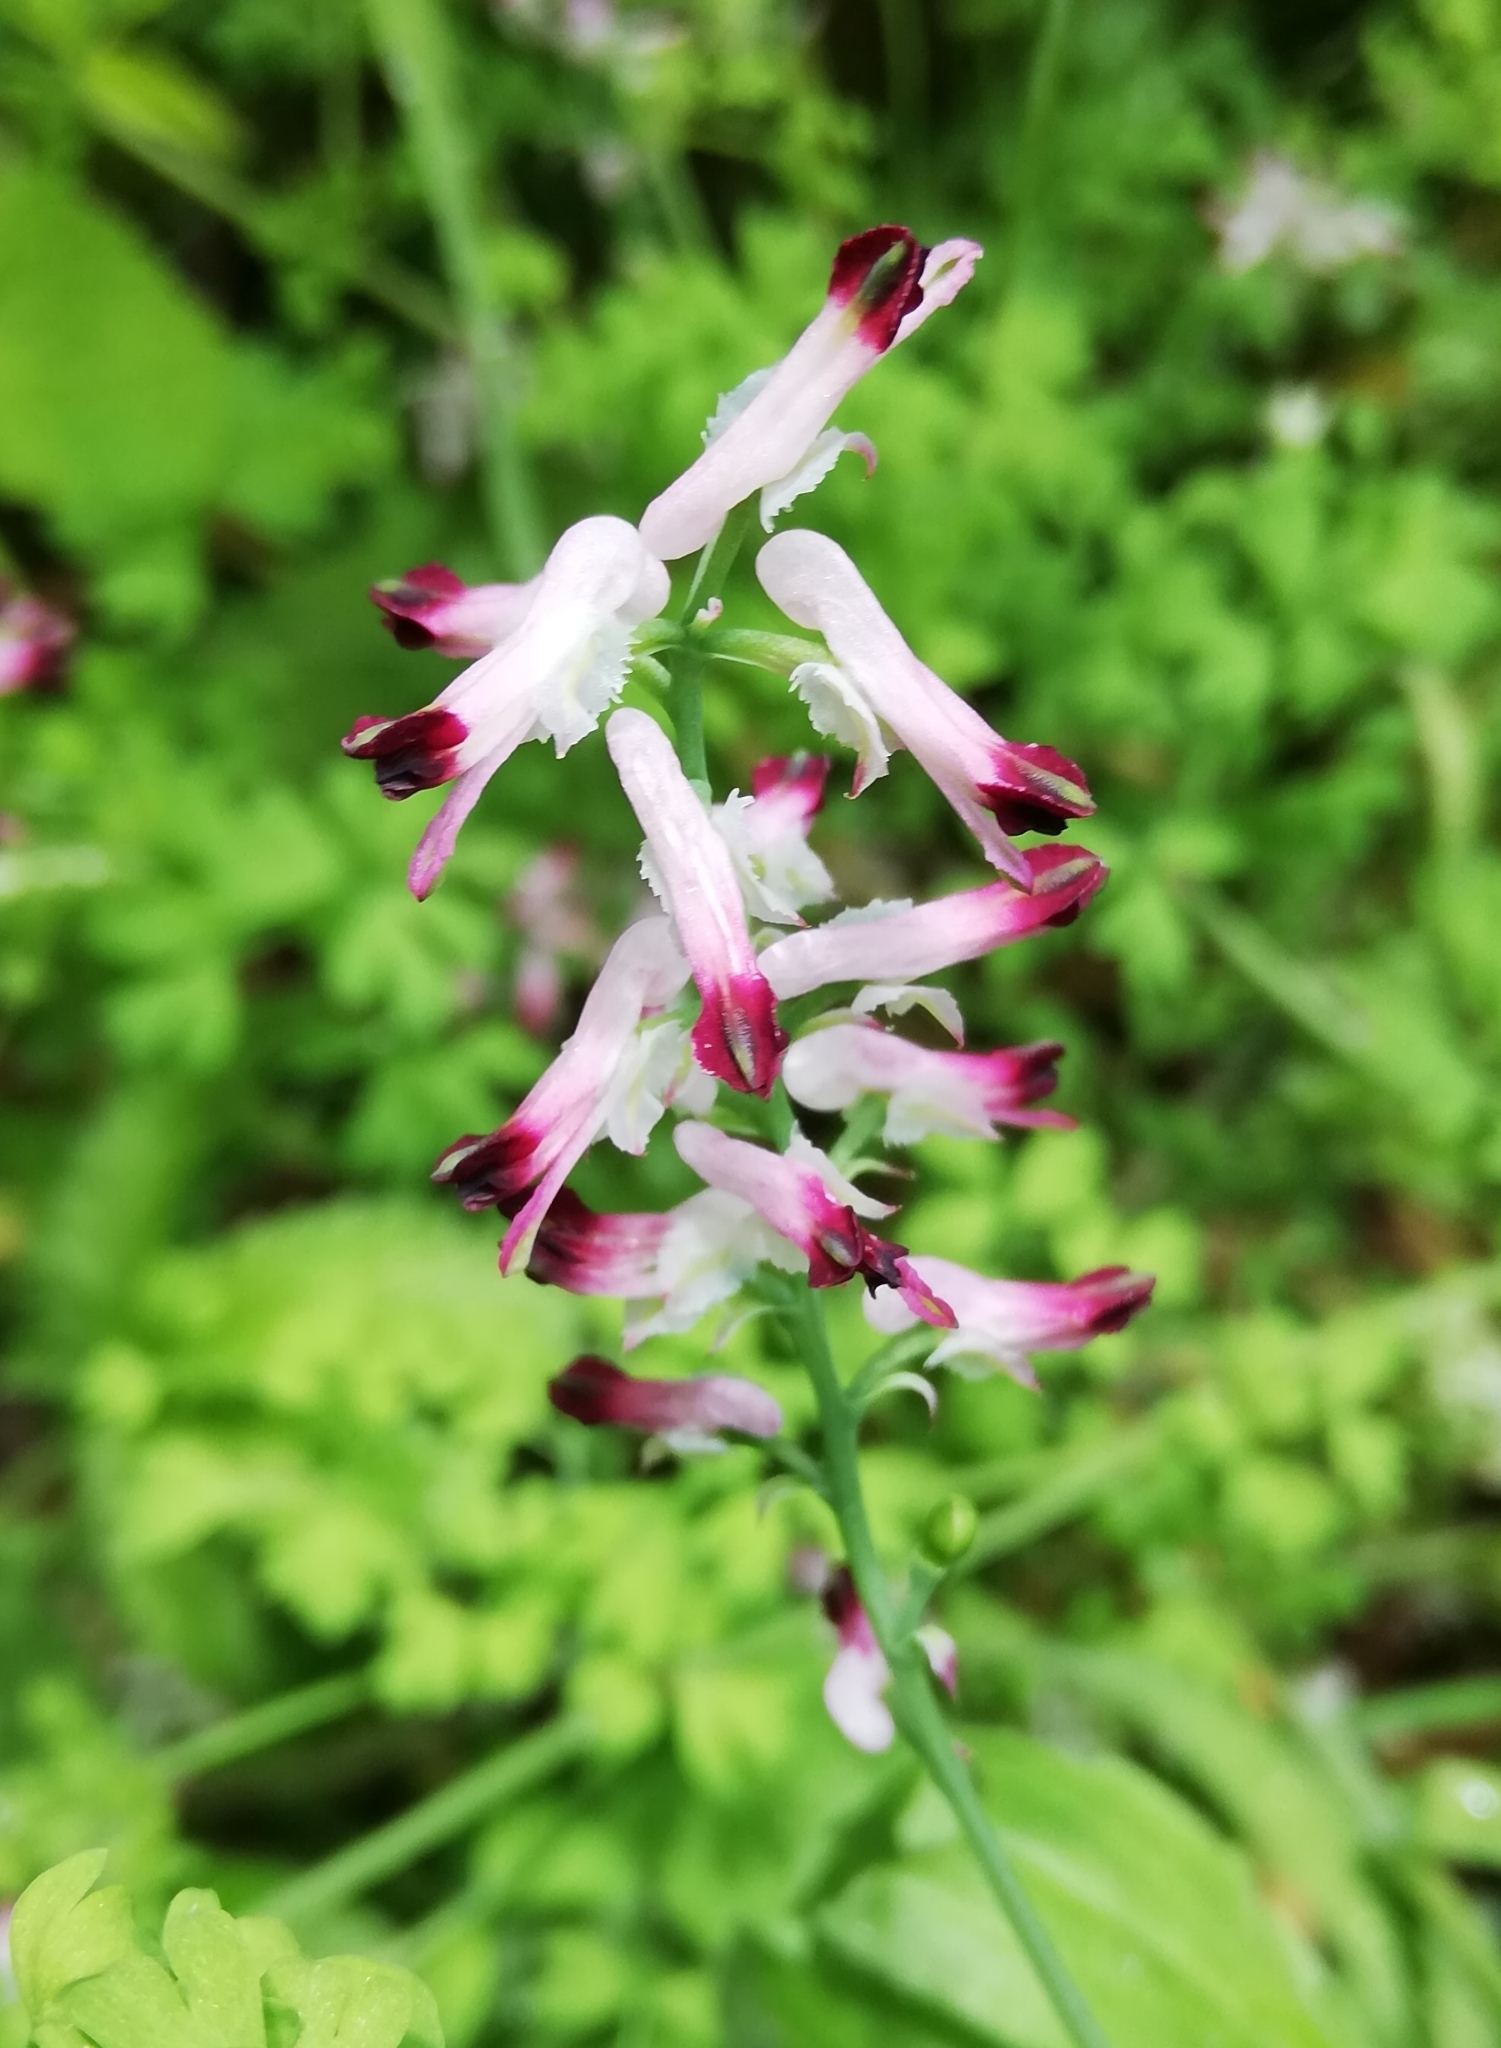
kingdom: Plantae
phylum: Tracheophyta
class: Magnoliopsida
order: Ranunculales
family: Papaveraceae
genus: Fumaria
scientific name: Fumaria capreolata
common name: White ramping-fumitory
